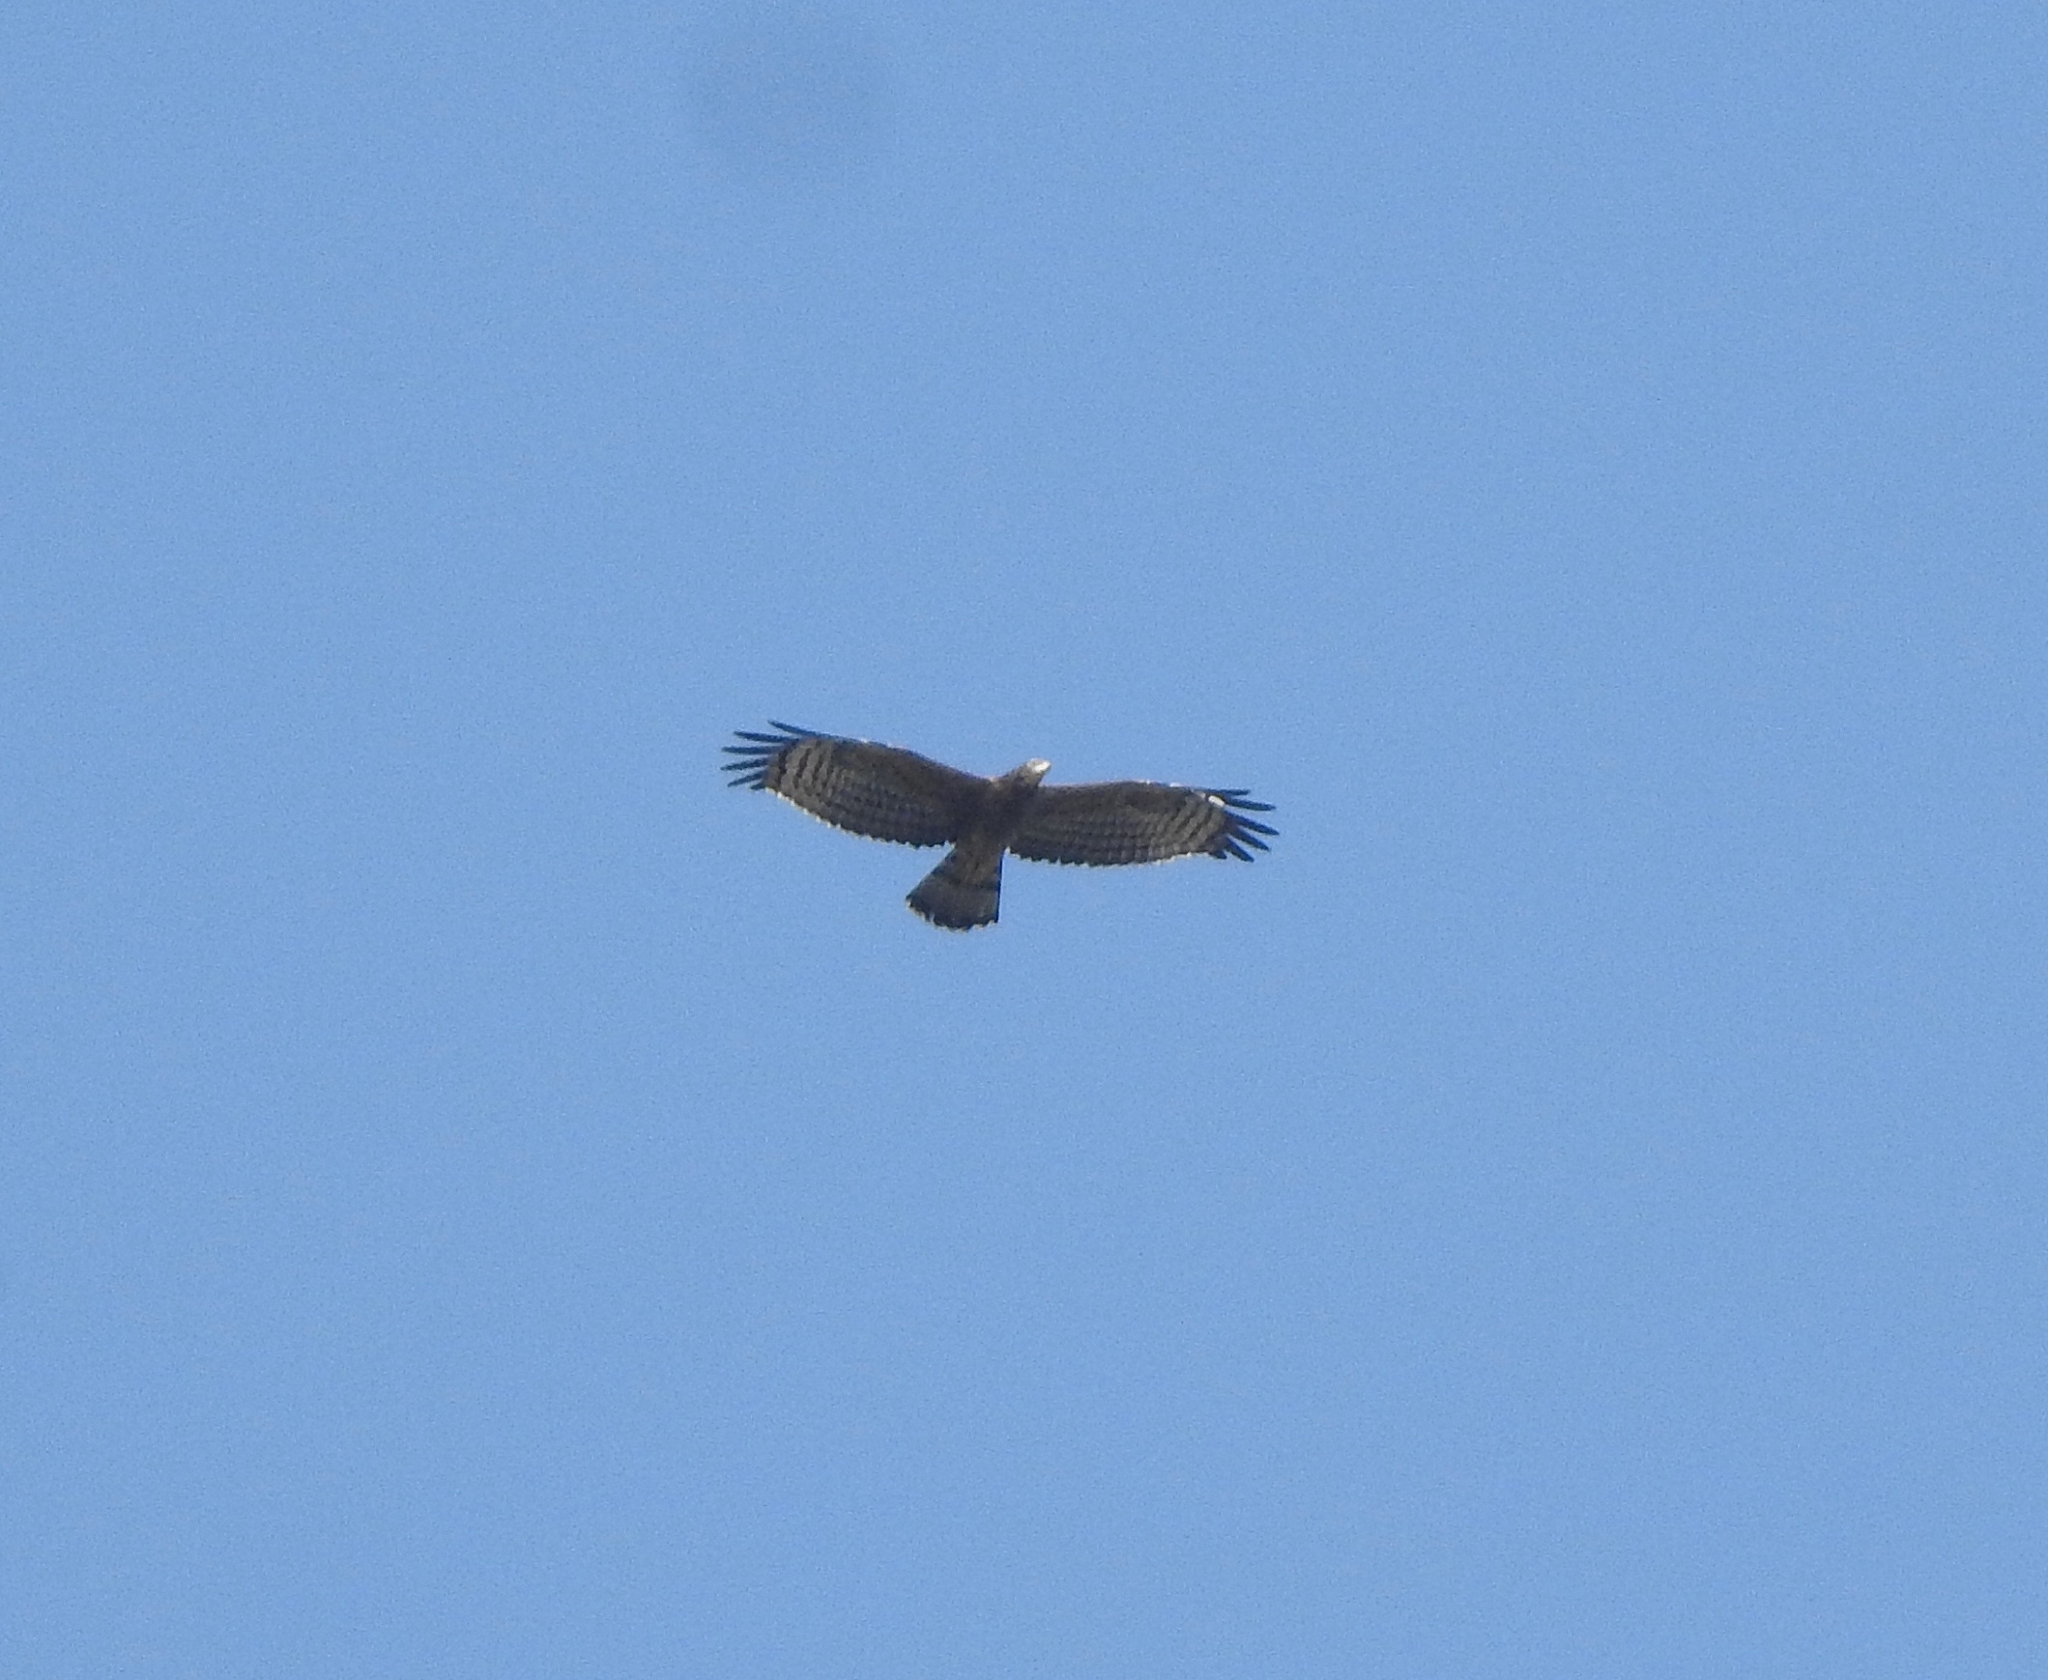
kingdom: Animalia
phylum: Chordata
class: Aves
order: Accipitriformes
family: Accipitridae
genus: Pernis
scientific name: Pernis ptilorhynchus
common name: Crested honey buzzard
